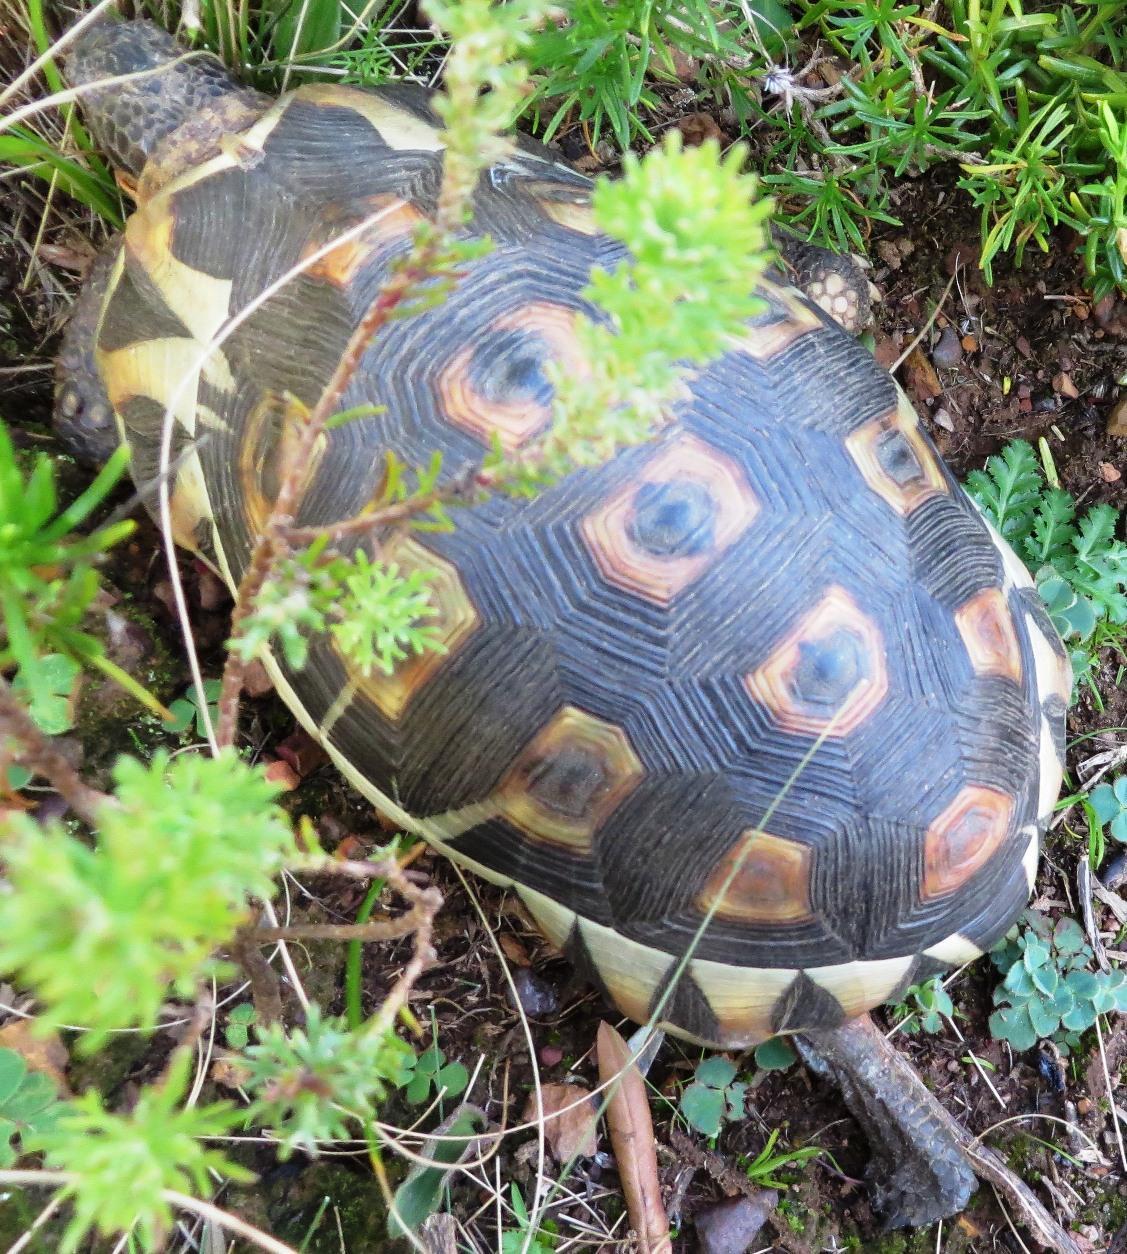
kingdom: Animalia
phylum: Chordata
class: Testudines
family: Testudinidae
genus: Chersina
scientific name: Chersina angulata
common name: South african bowsprit tortoise
